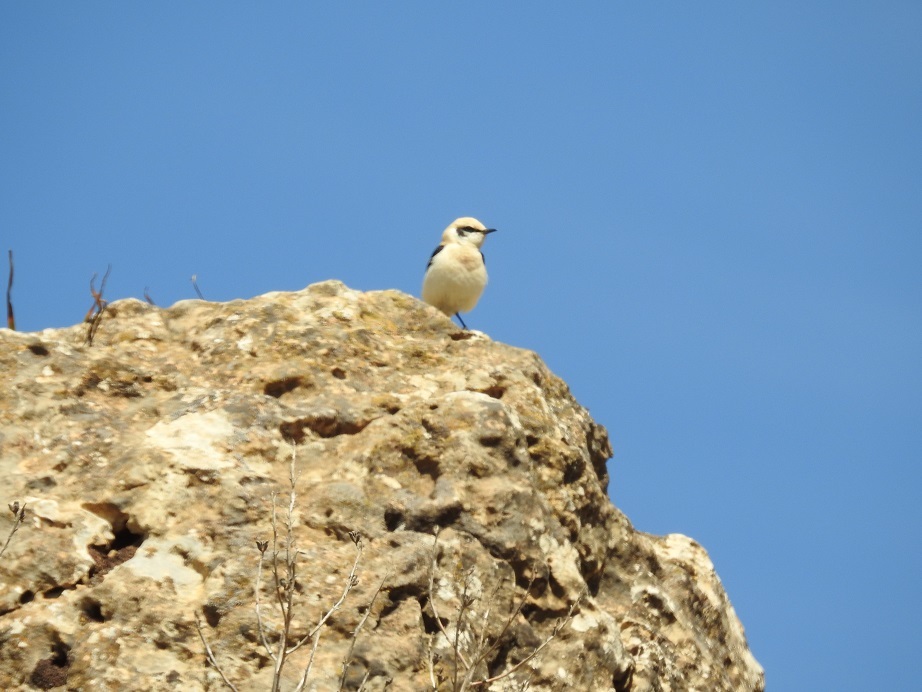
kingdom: Animalia
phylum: Chordata
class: Aves
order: Passeriformes
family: Muscicapidae
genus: Oenanthe
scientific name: Oenanthe hispanica
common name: Black-eared wheatear
